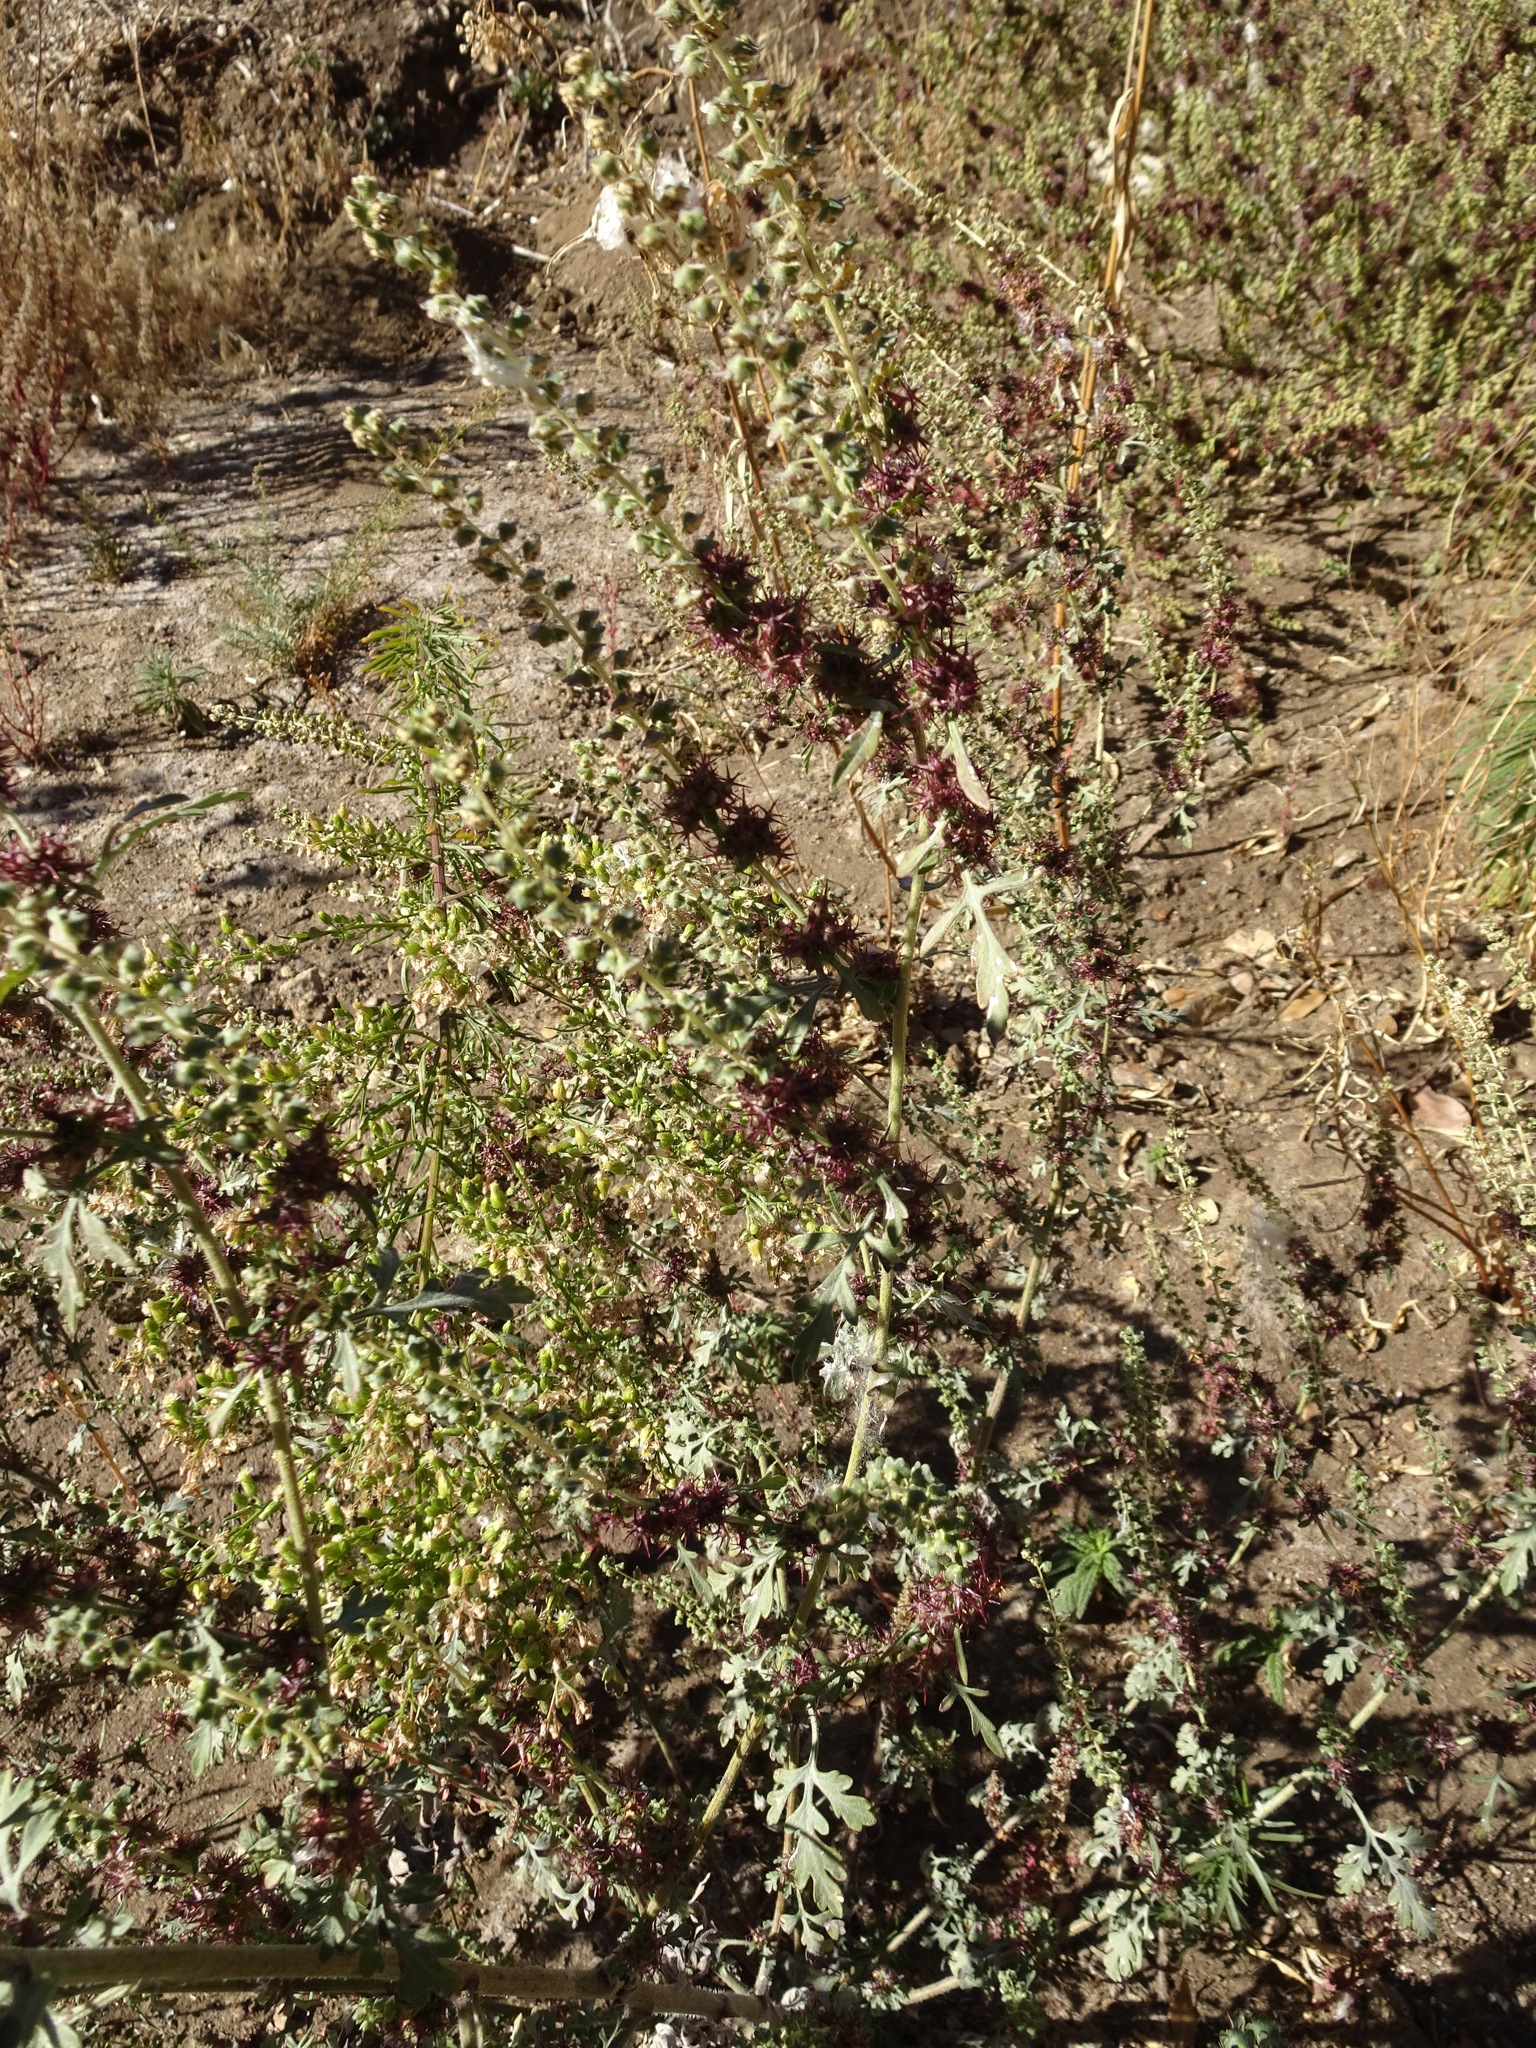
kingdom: Plantae
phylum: Tracheophyta
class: Magnoliopsida
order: Asterales
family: Asteraceae
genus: Ambrosia
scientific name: Ambrosia acanthicarpa
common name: Hooker's bur ragweed
